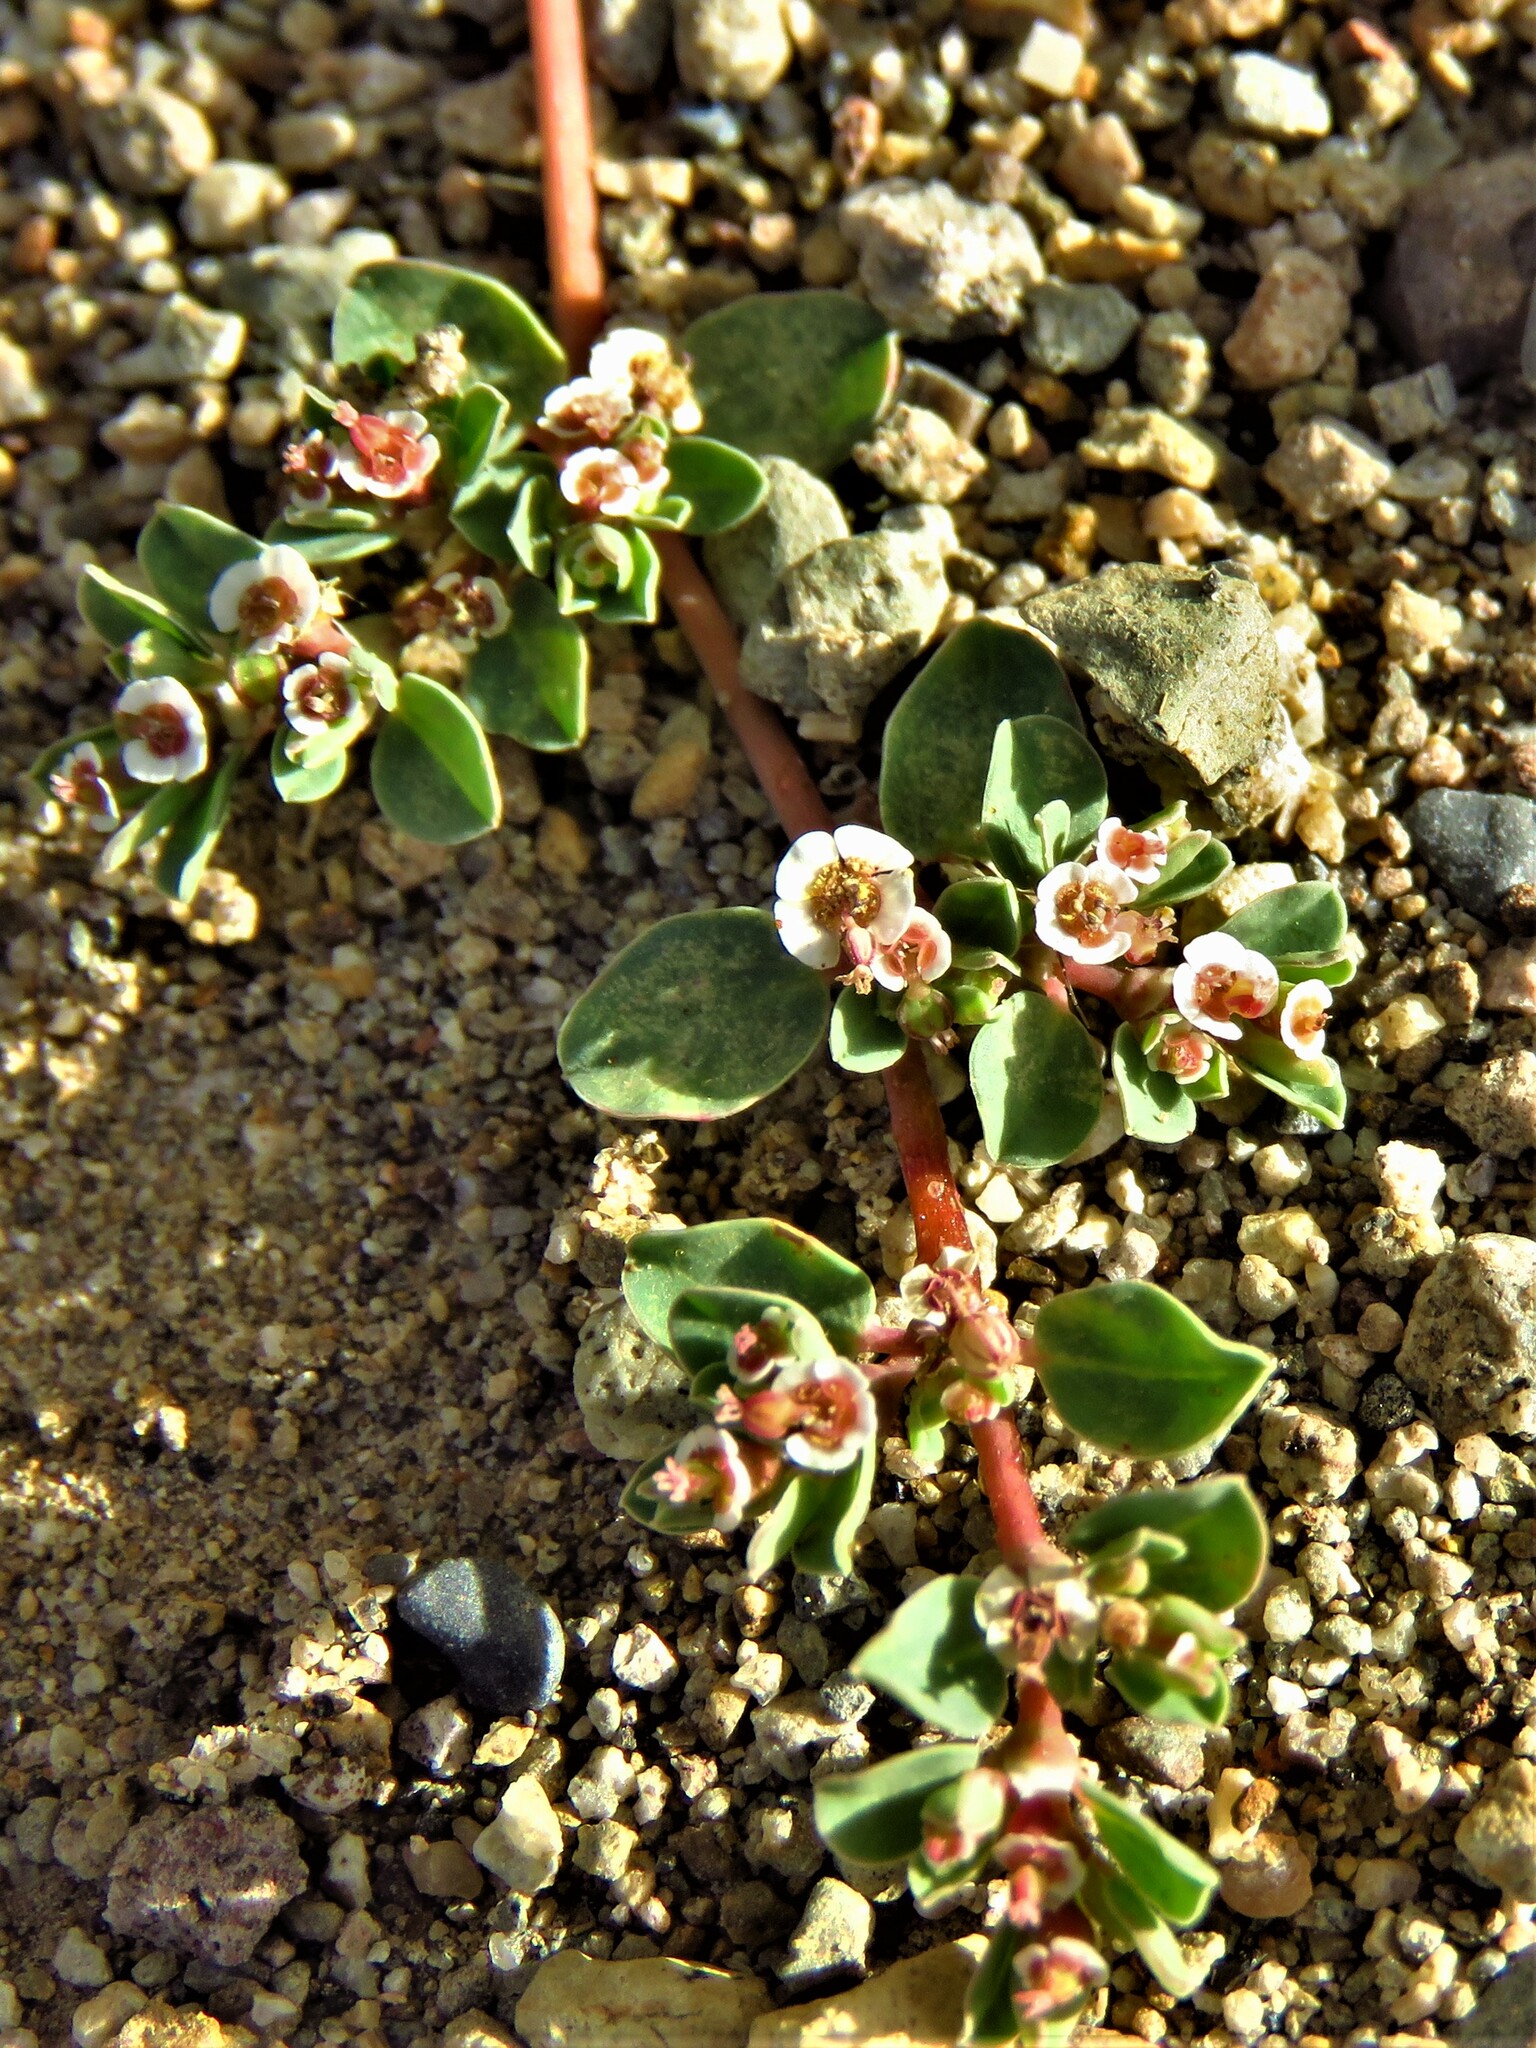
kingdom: Plantae
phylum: Tracheophyta
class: Magnoliopsida
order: Malpighiales
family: Euphorbiaceae
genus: Euphorbia
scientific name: Euphorbia albomarginata
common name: Whitemargin sandmat
